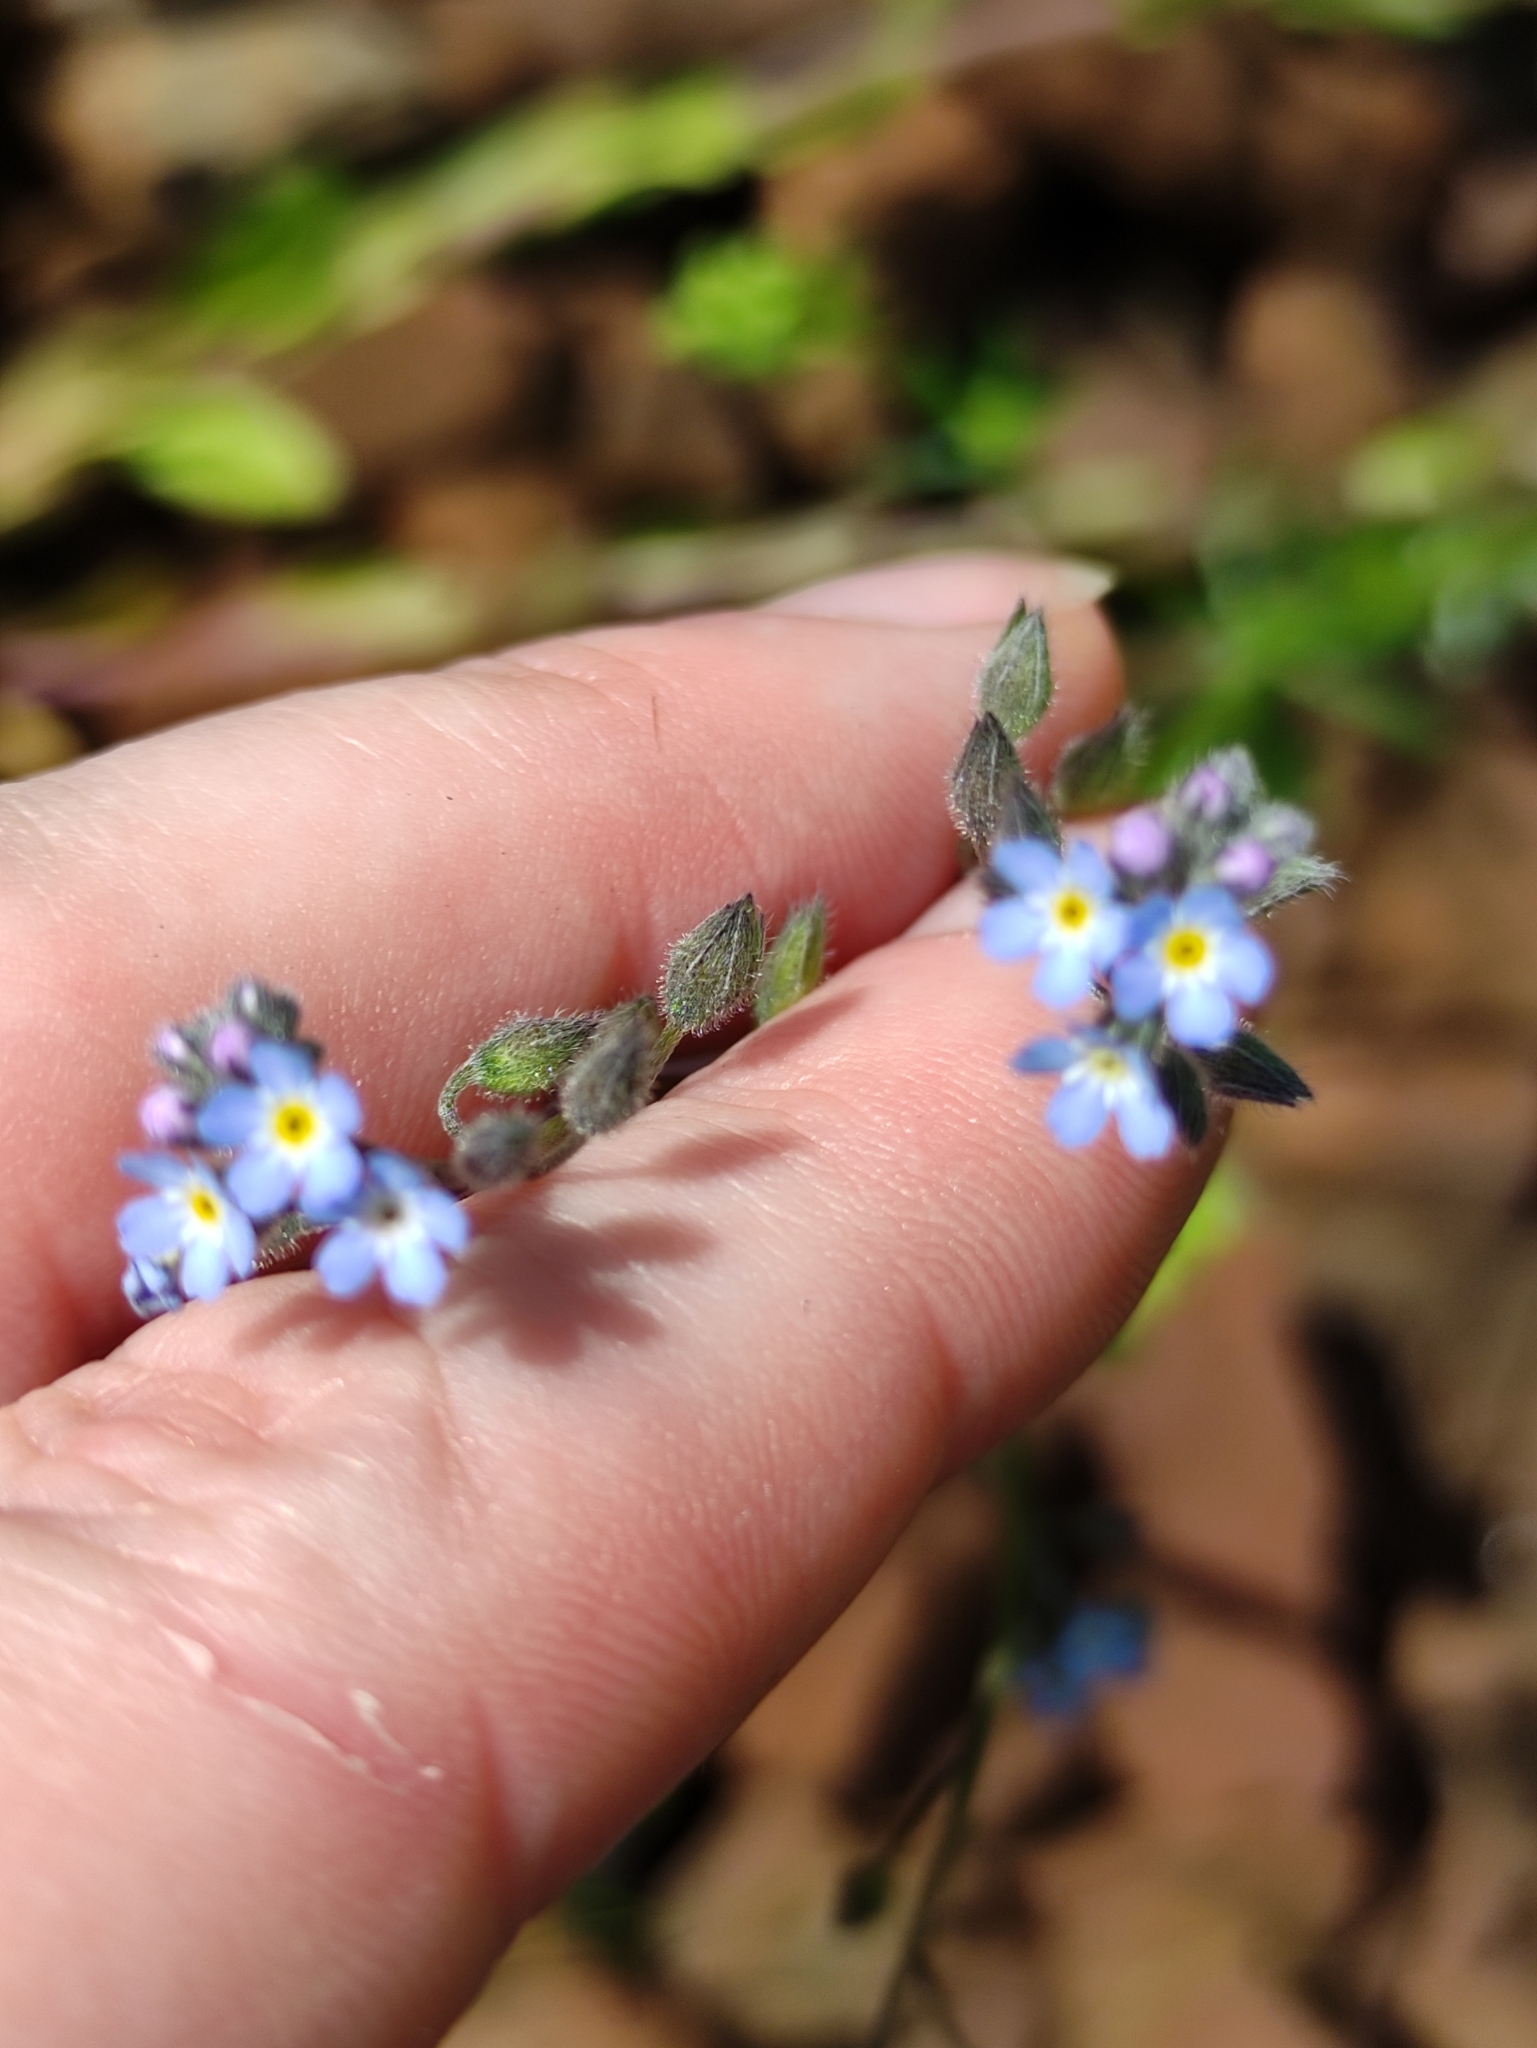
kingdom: Plantae
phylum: Tracheophyta
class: Magnoliopsida
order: Boraginales
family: Boraginaceae
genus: Myosotis
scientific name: Myosotis arvensis
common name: Field forget-me-not
